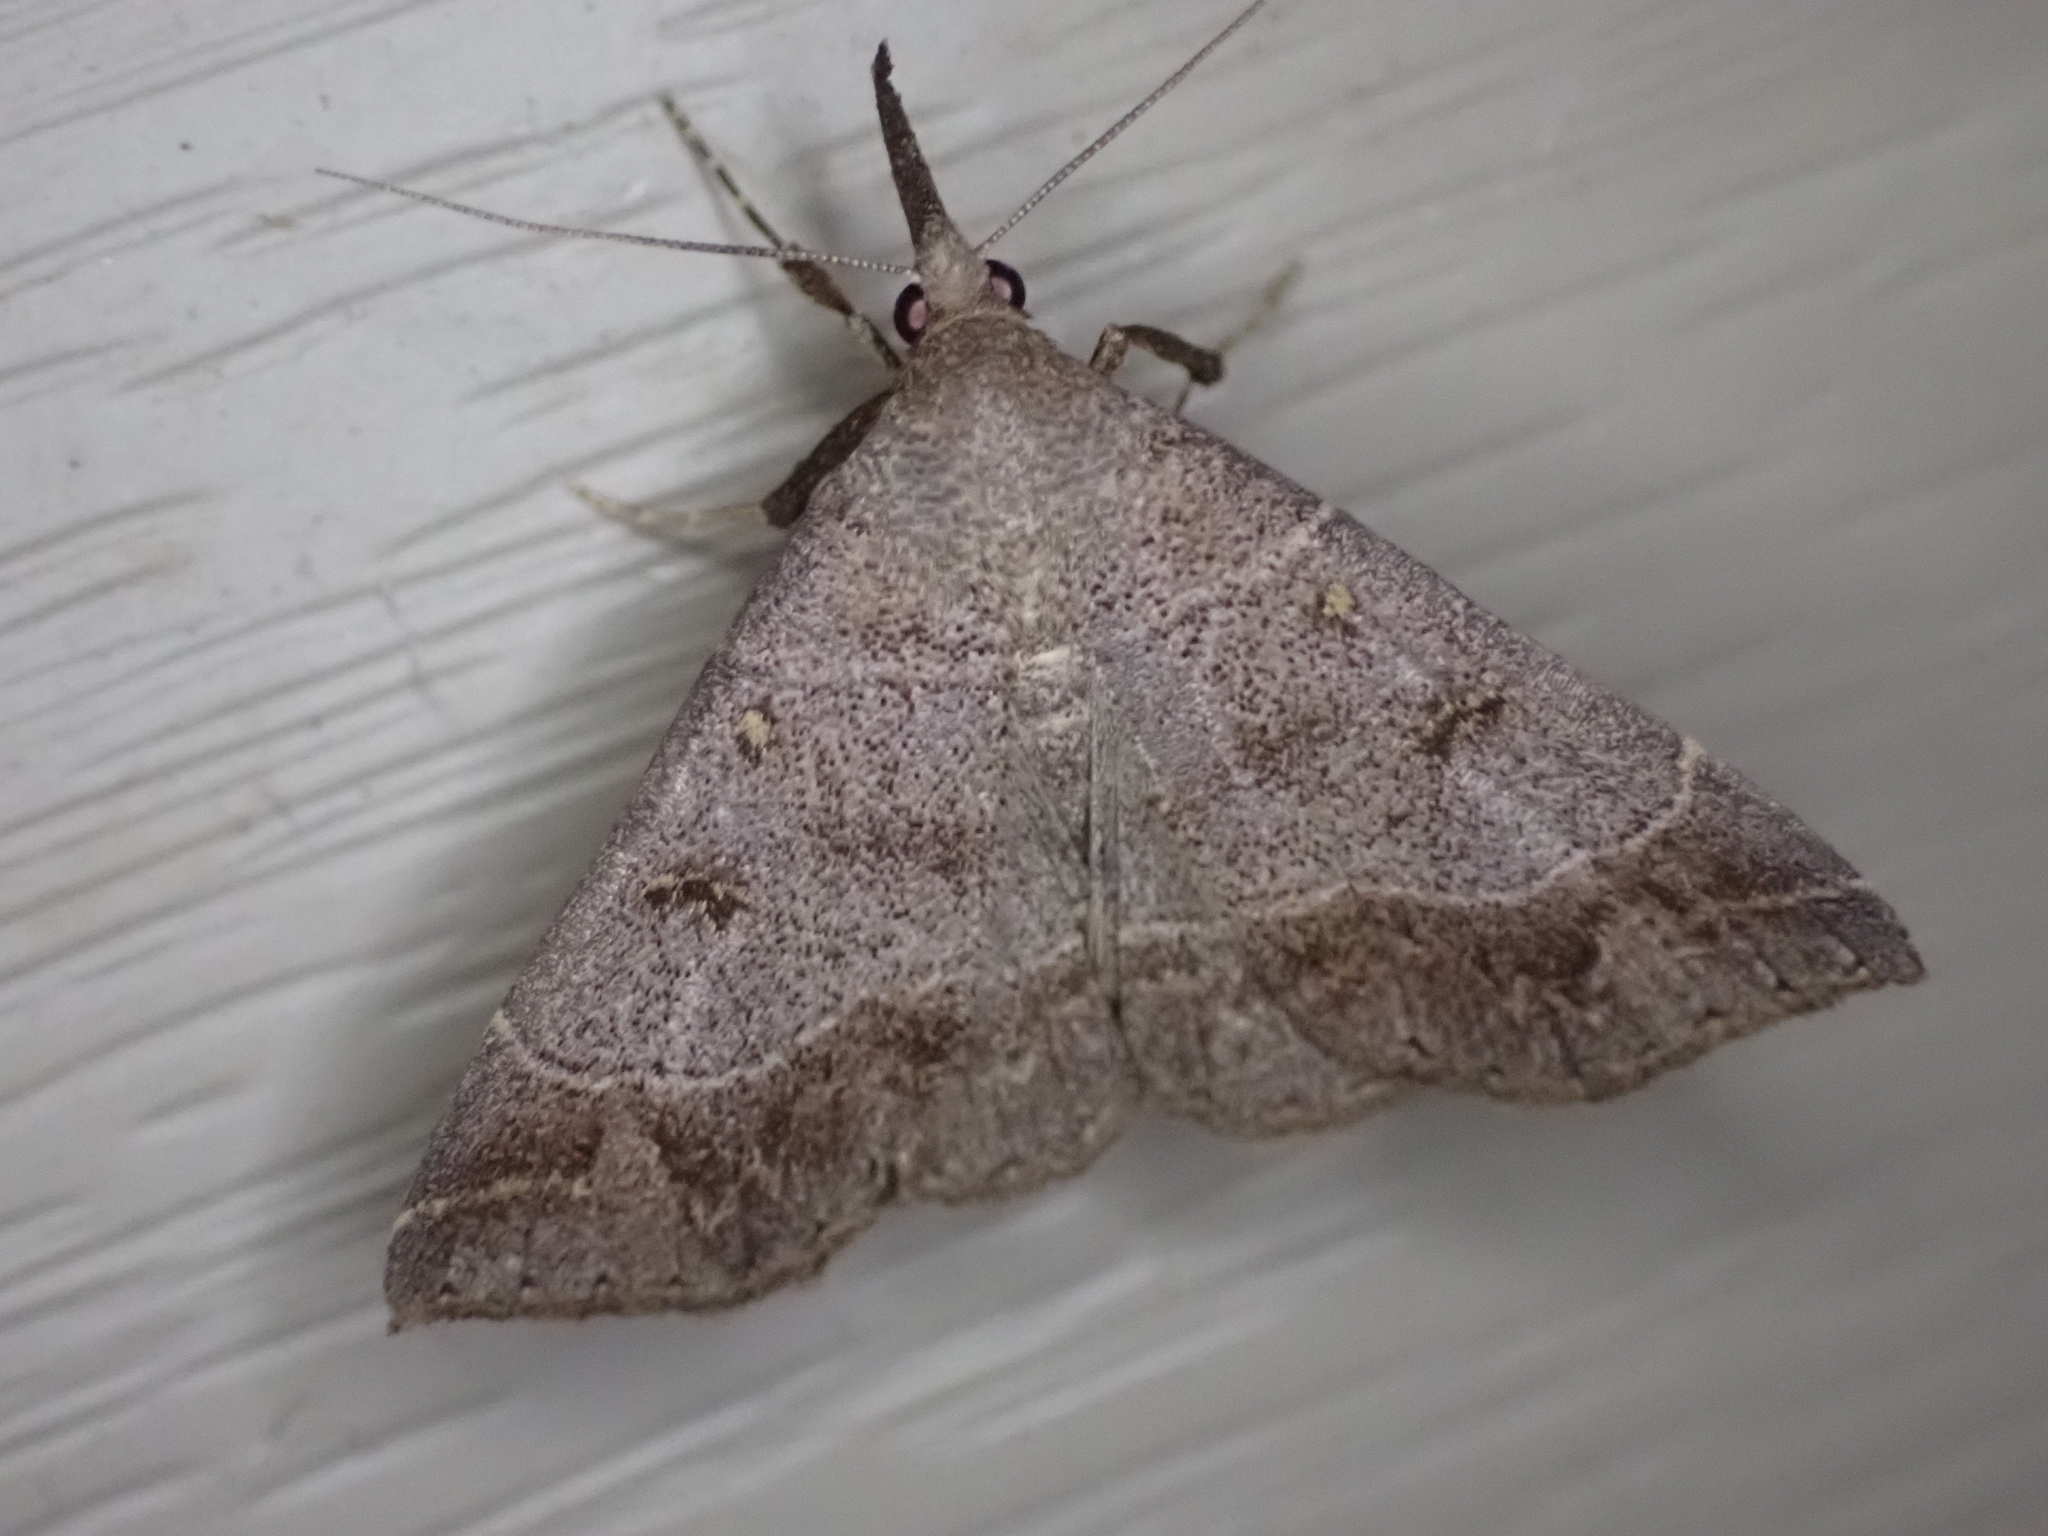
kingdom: Animalia
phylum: Arthropoda
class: Insecta
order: Lepidoptera
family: Erebidae
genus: Renia
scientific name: Renia flavipunctalis
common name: Yellow-spotted renia moth
